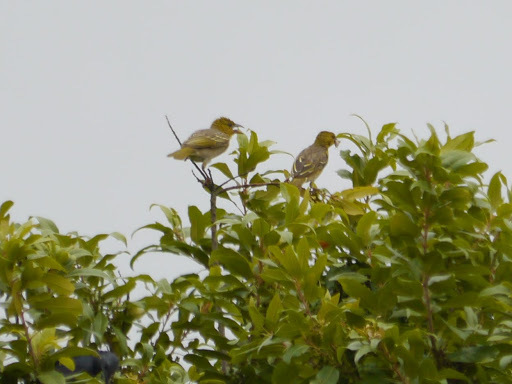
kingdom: Animalia
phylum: Chordata
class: Aves
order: Passeriformes
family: Ploceidae
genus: Ploceus
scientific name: Ploceus cucullatus
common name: Village weaver
